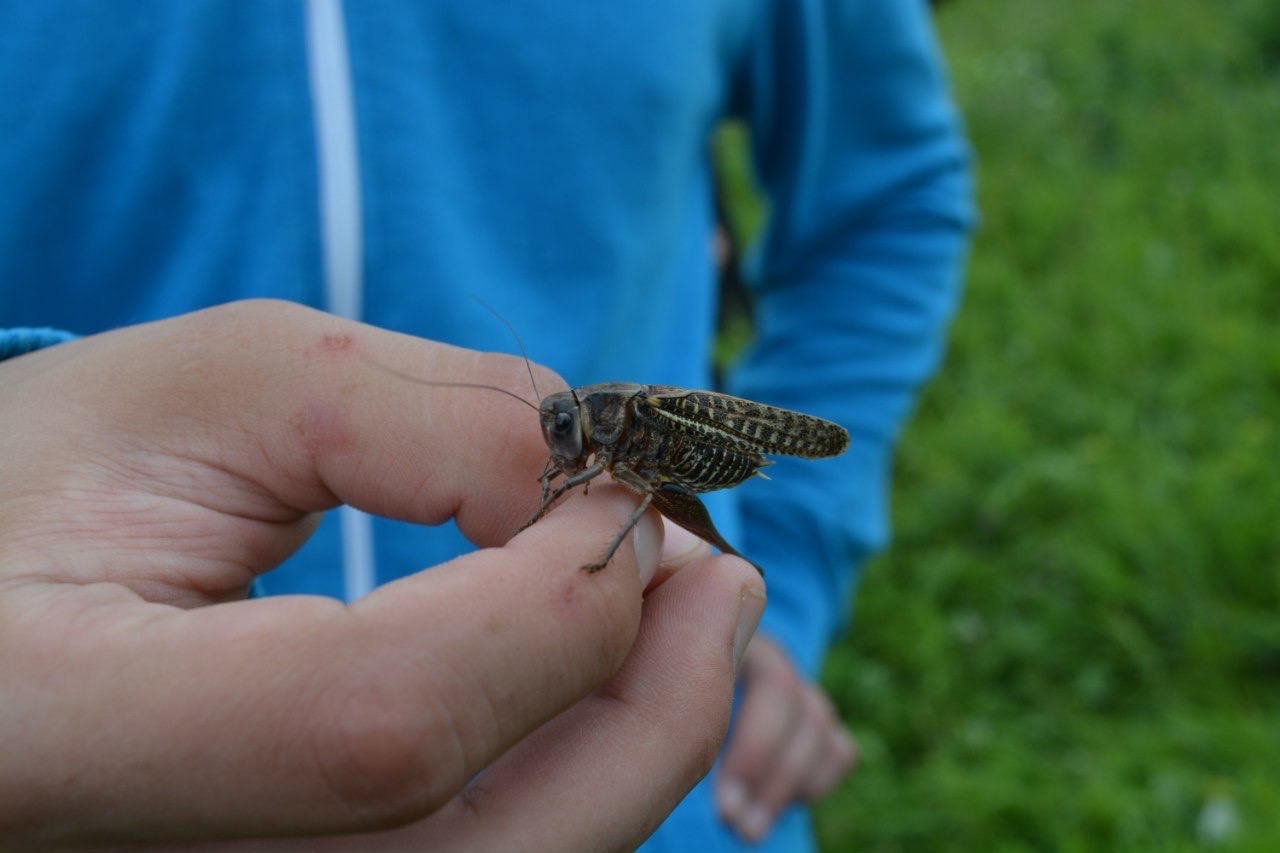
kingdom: Animalia
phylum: Arthropoda
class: Insecta
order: Orthoptera
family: Tettigoniidae
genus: Decticus
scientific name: Decticus verrucivorus
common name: Wart-biter
